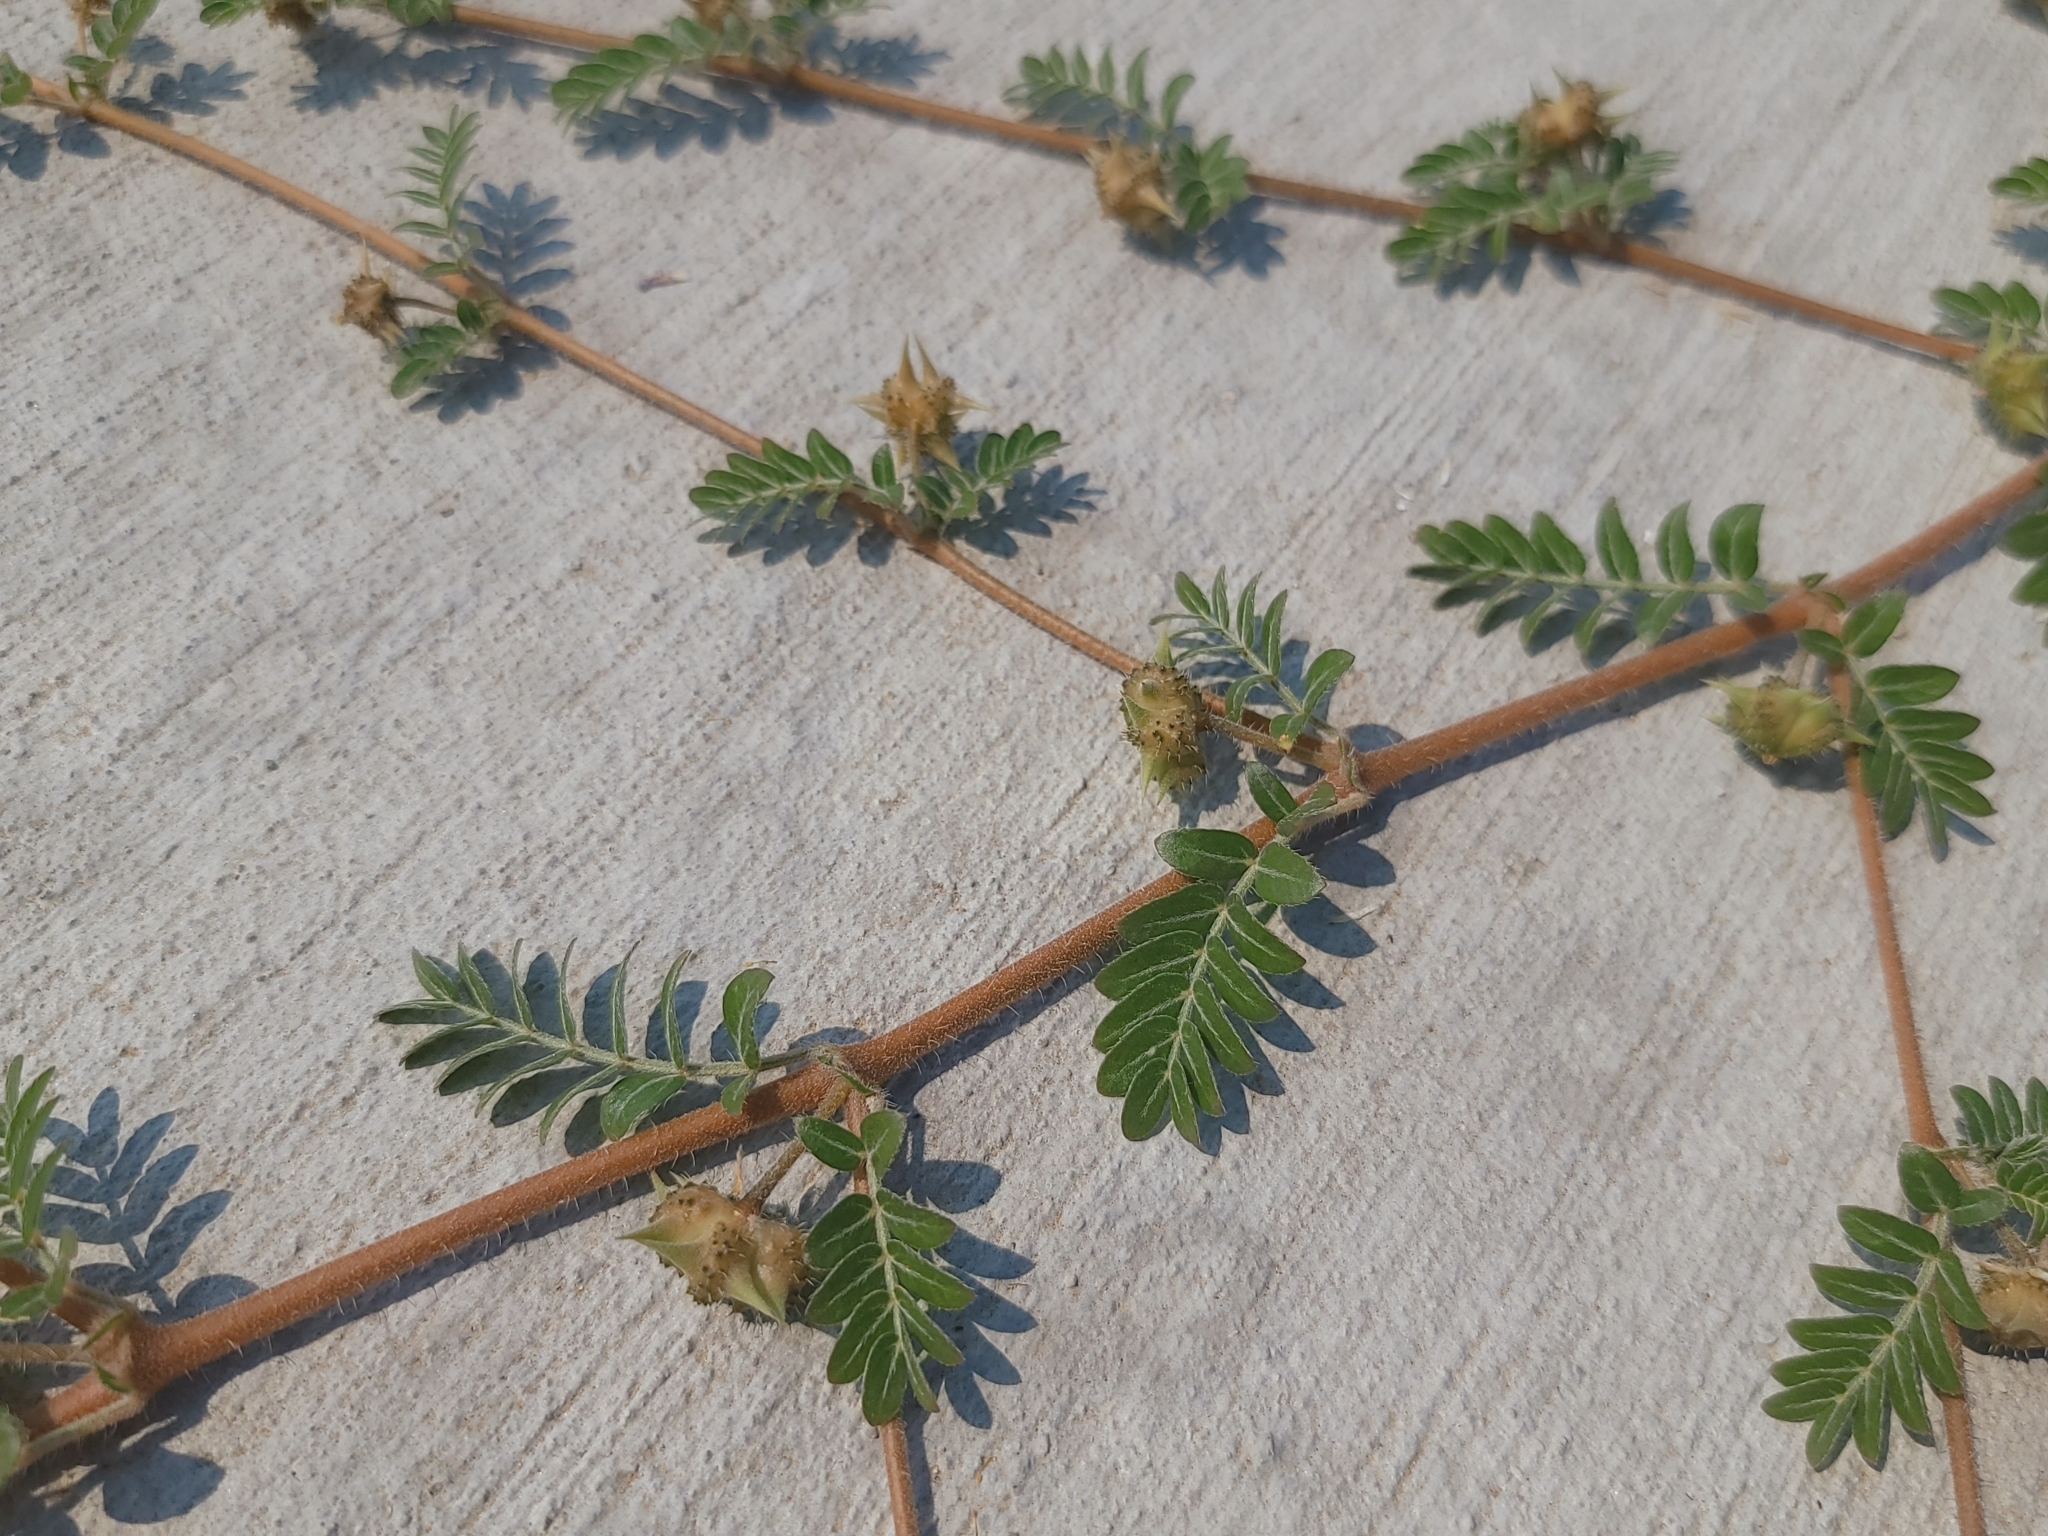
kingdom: Plantae
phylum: Tracheophyta
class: Magnoliopsida
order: Zygophyllales
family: Zygophyllaceae
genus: Tribulus
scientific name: Tribulus terrestris
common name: Puncturevine
